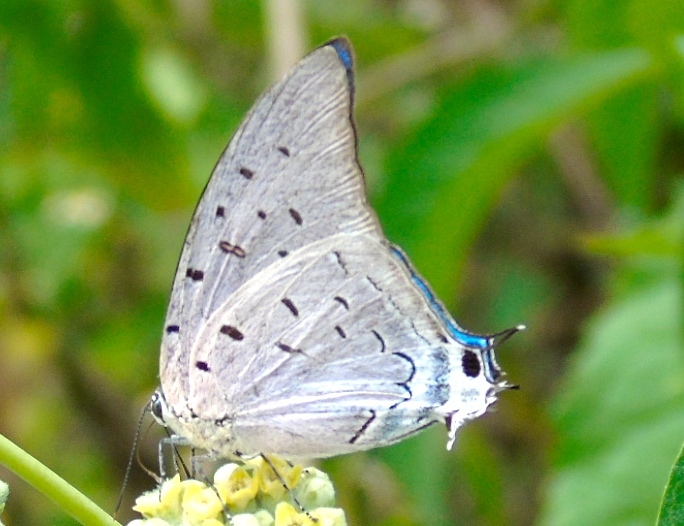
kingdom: Animalia
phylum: Arthropoda
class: Insecta
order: Lepidoptera
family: Lycaenidae
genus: Pseudolycaena
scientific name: Pseudolycaena damo
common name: Sky-blue hairstreak
